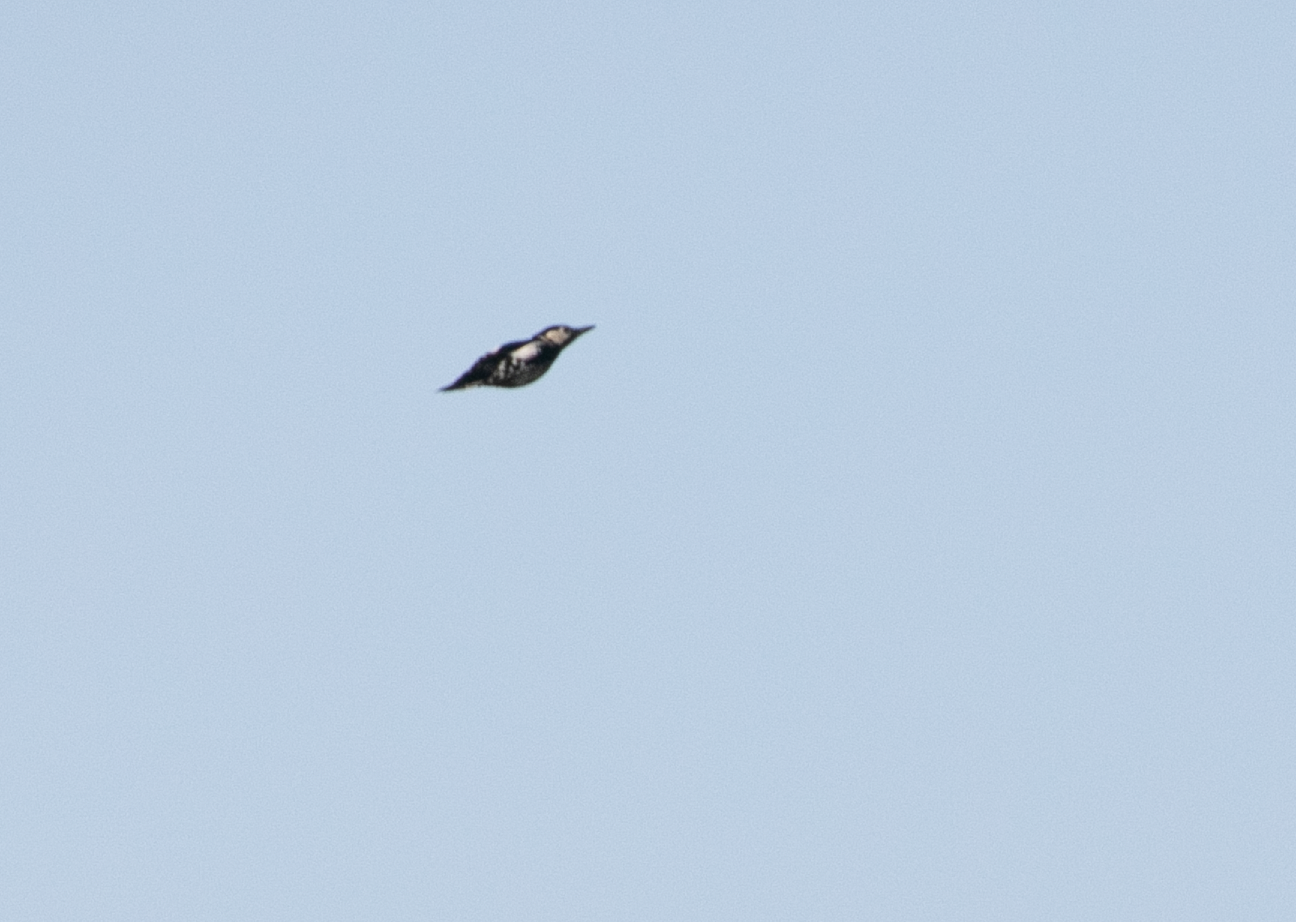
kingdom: Animalia
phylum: Chordata
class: Aves
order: Piciformes
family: Picidae
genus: Dendrocopos
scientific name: Dendrocopos major
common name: Great spotted woodpecker
